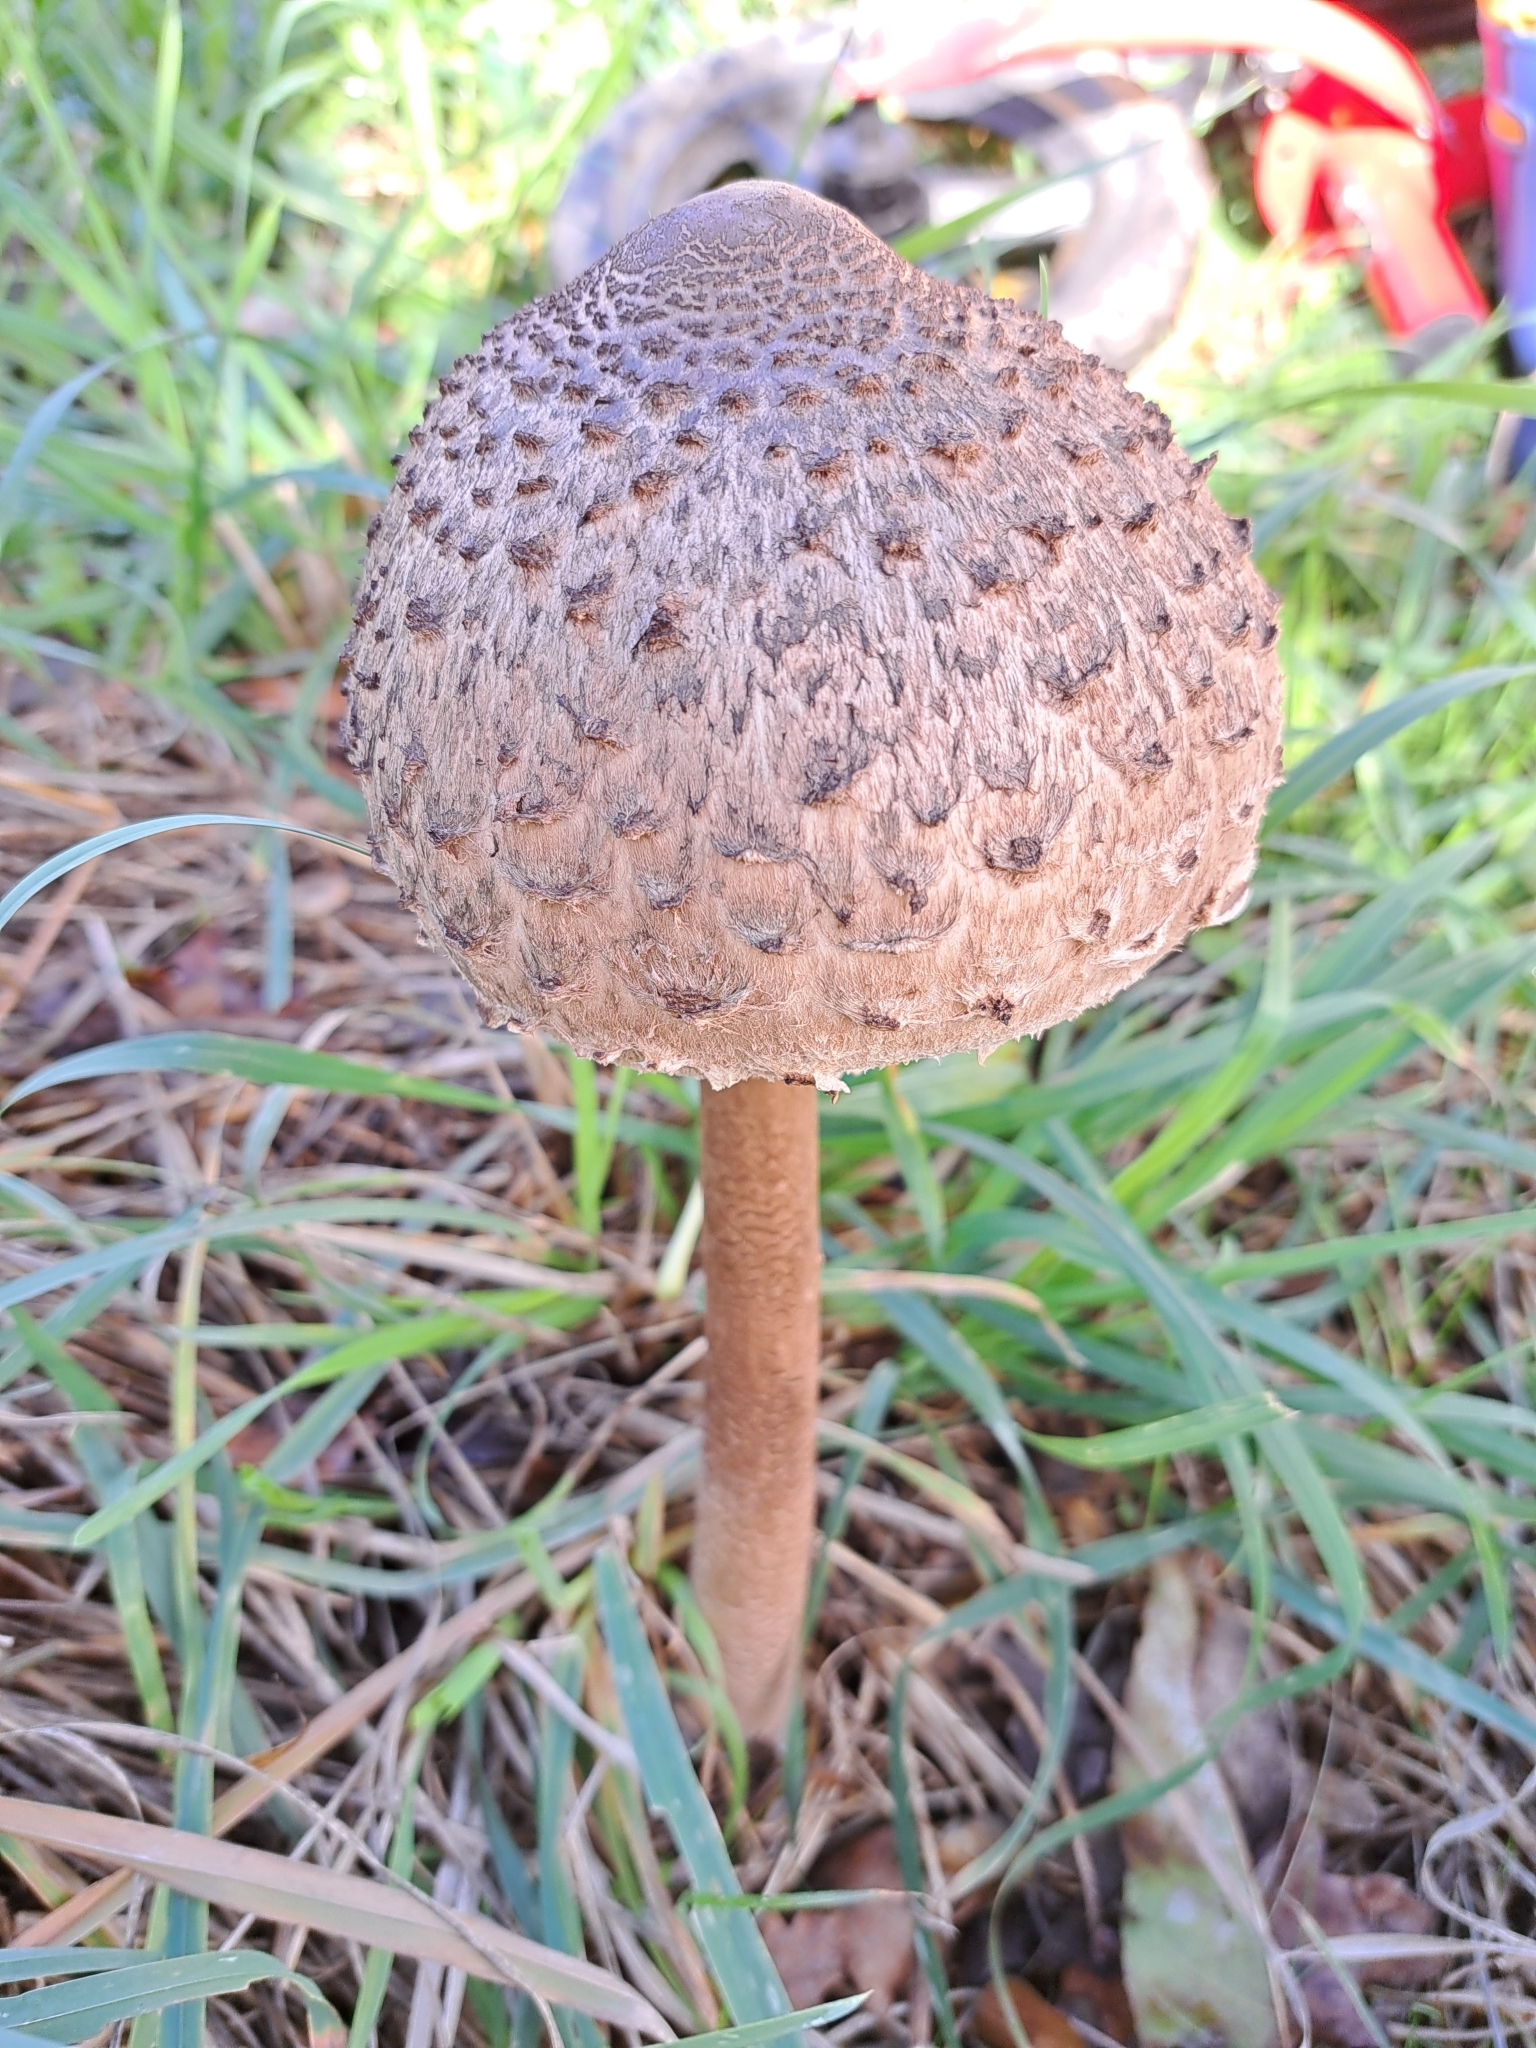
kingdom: Fungi
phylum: Basidiomycota
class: Agaricomycetes
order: Agaricales
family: Agaricaceae
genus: Macrolepiota
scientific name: Macrolepiota procera
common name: Parasol
